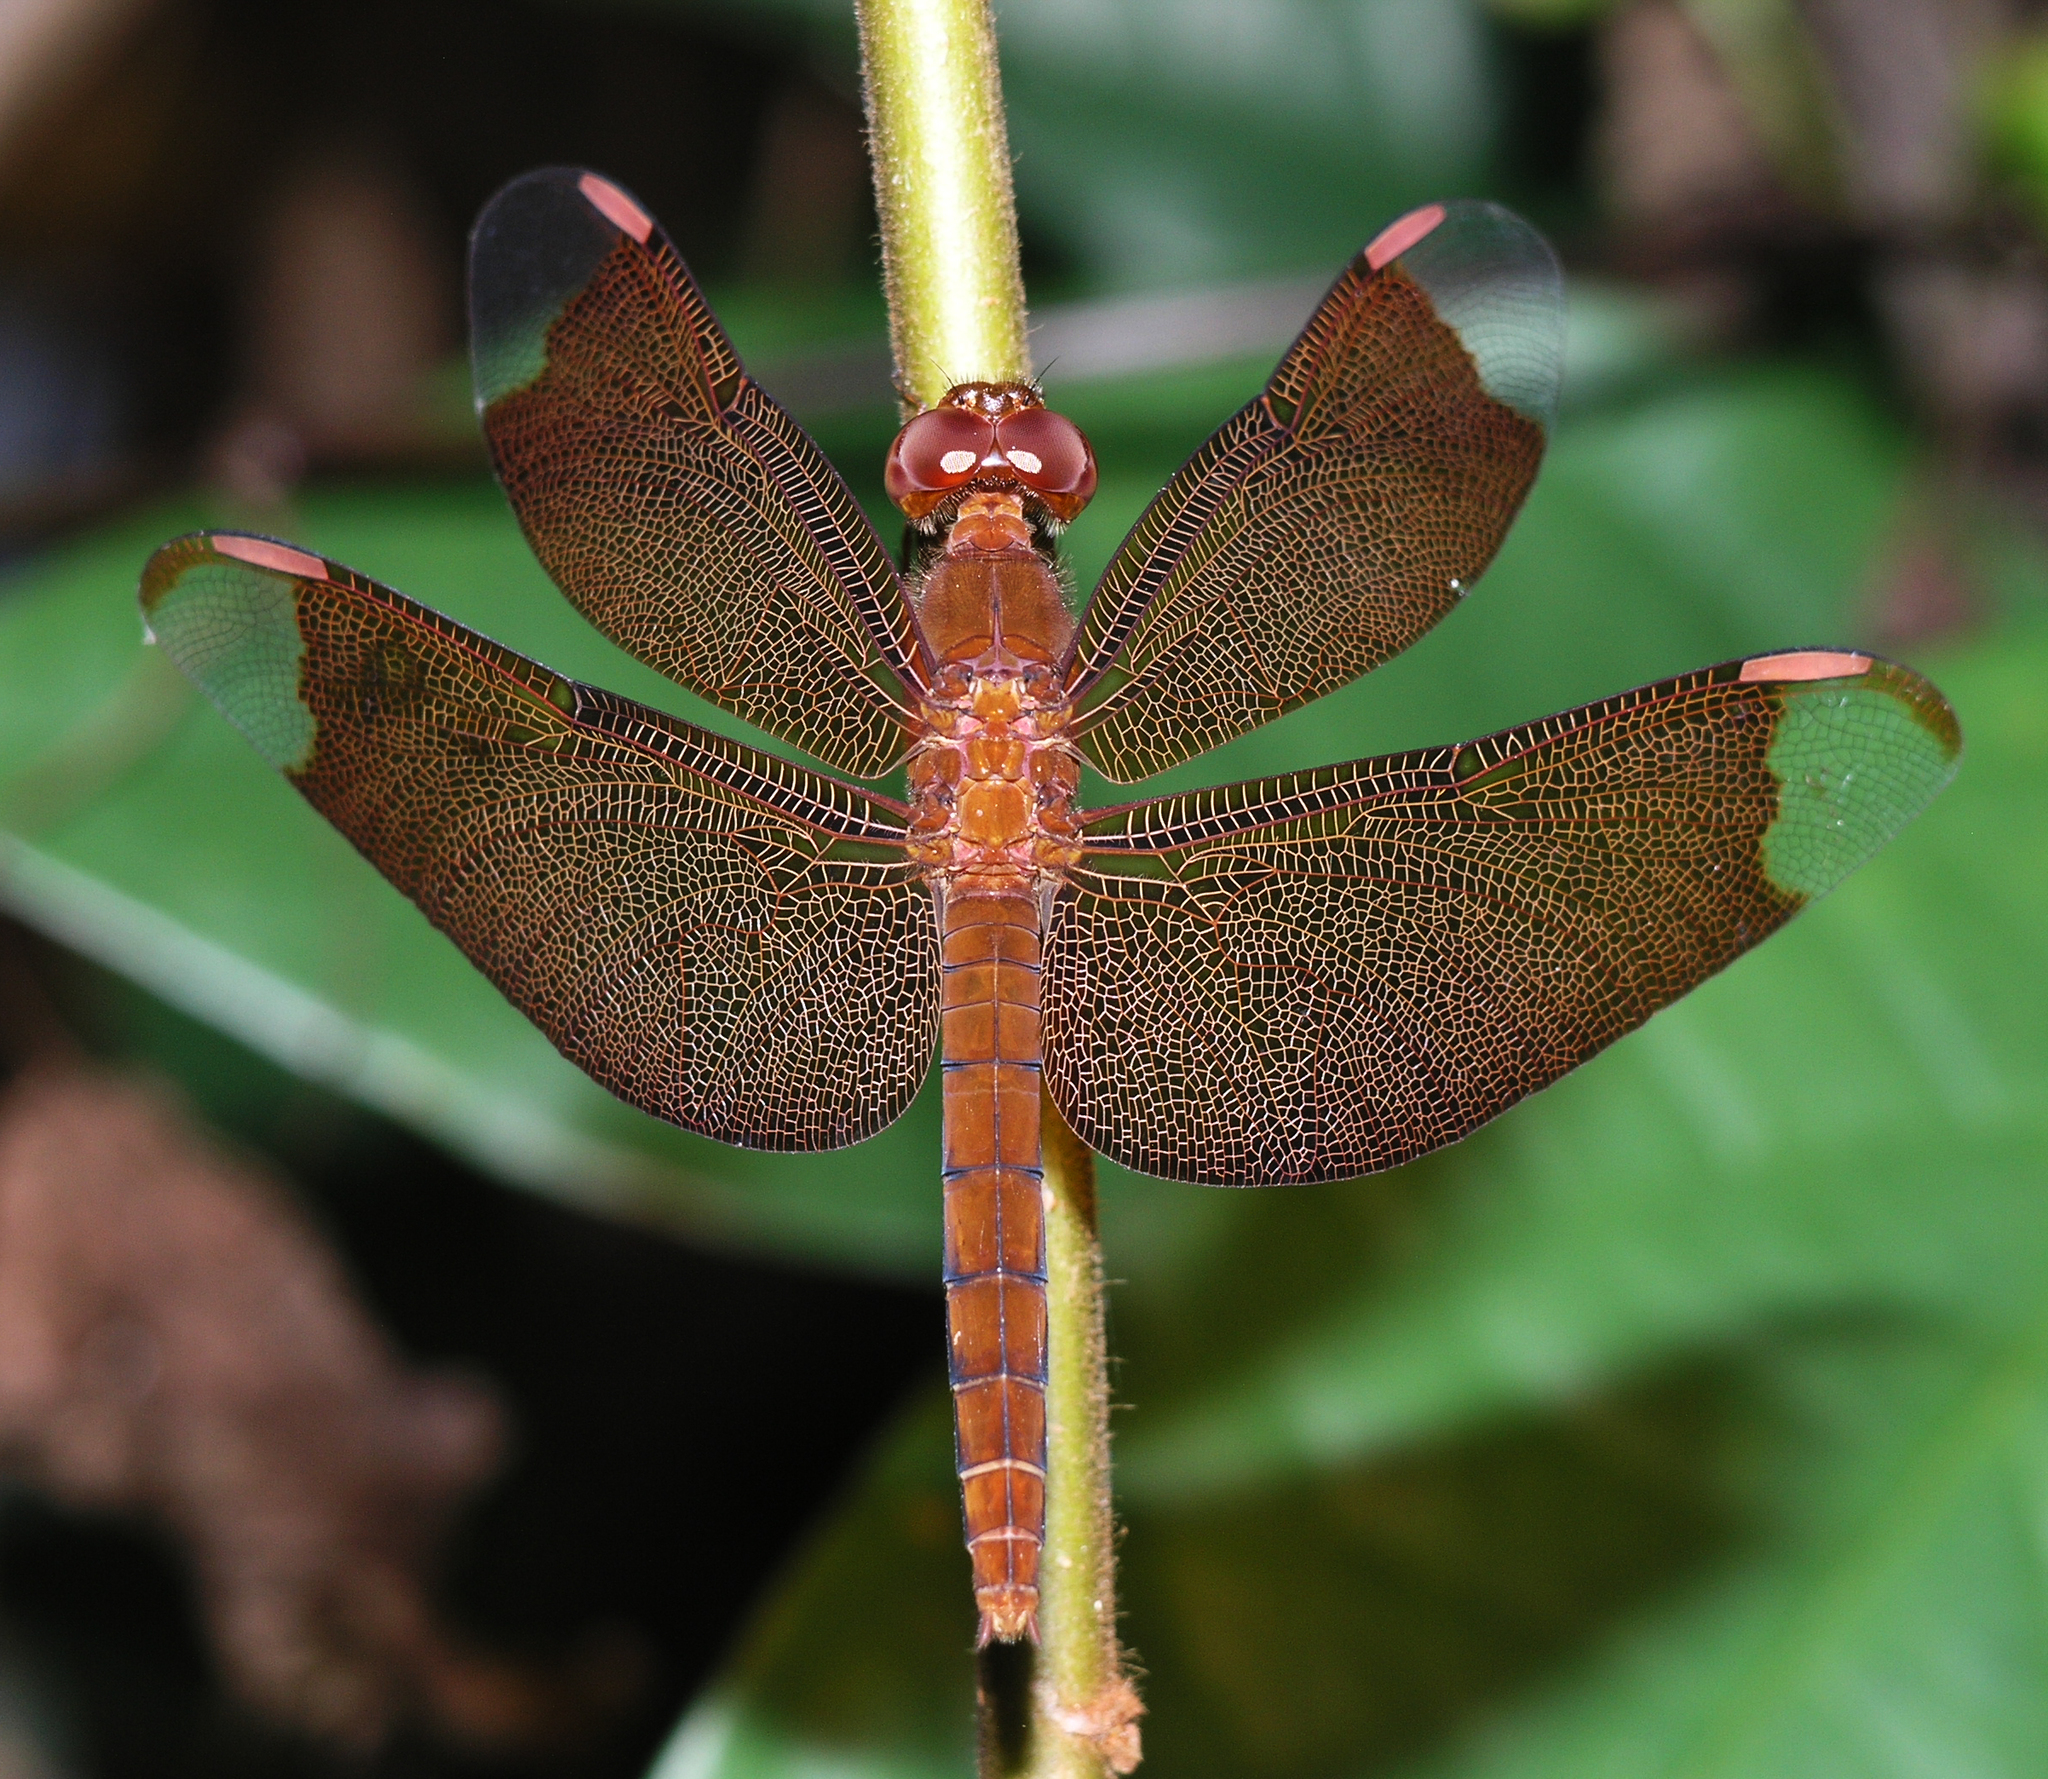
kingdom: Animalia
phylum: Arthropoda
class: Insecta
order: Odonata
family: Libellulidae
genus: Neurothemis
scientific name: Neurothemis fulvia
